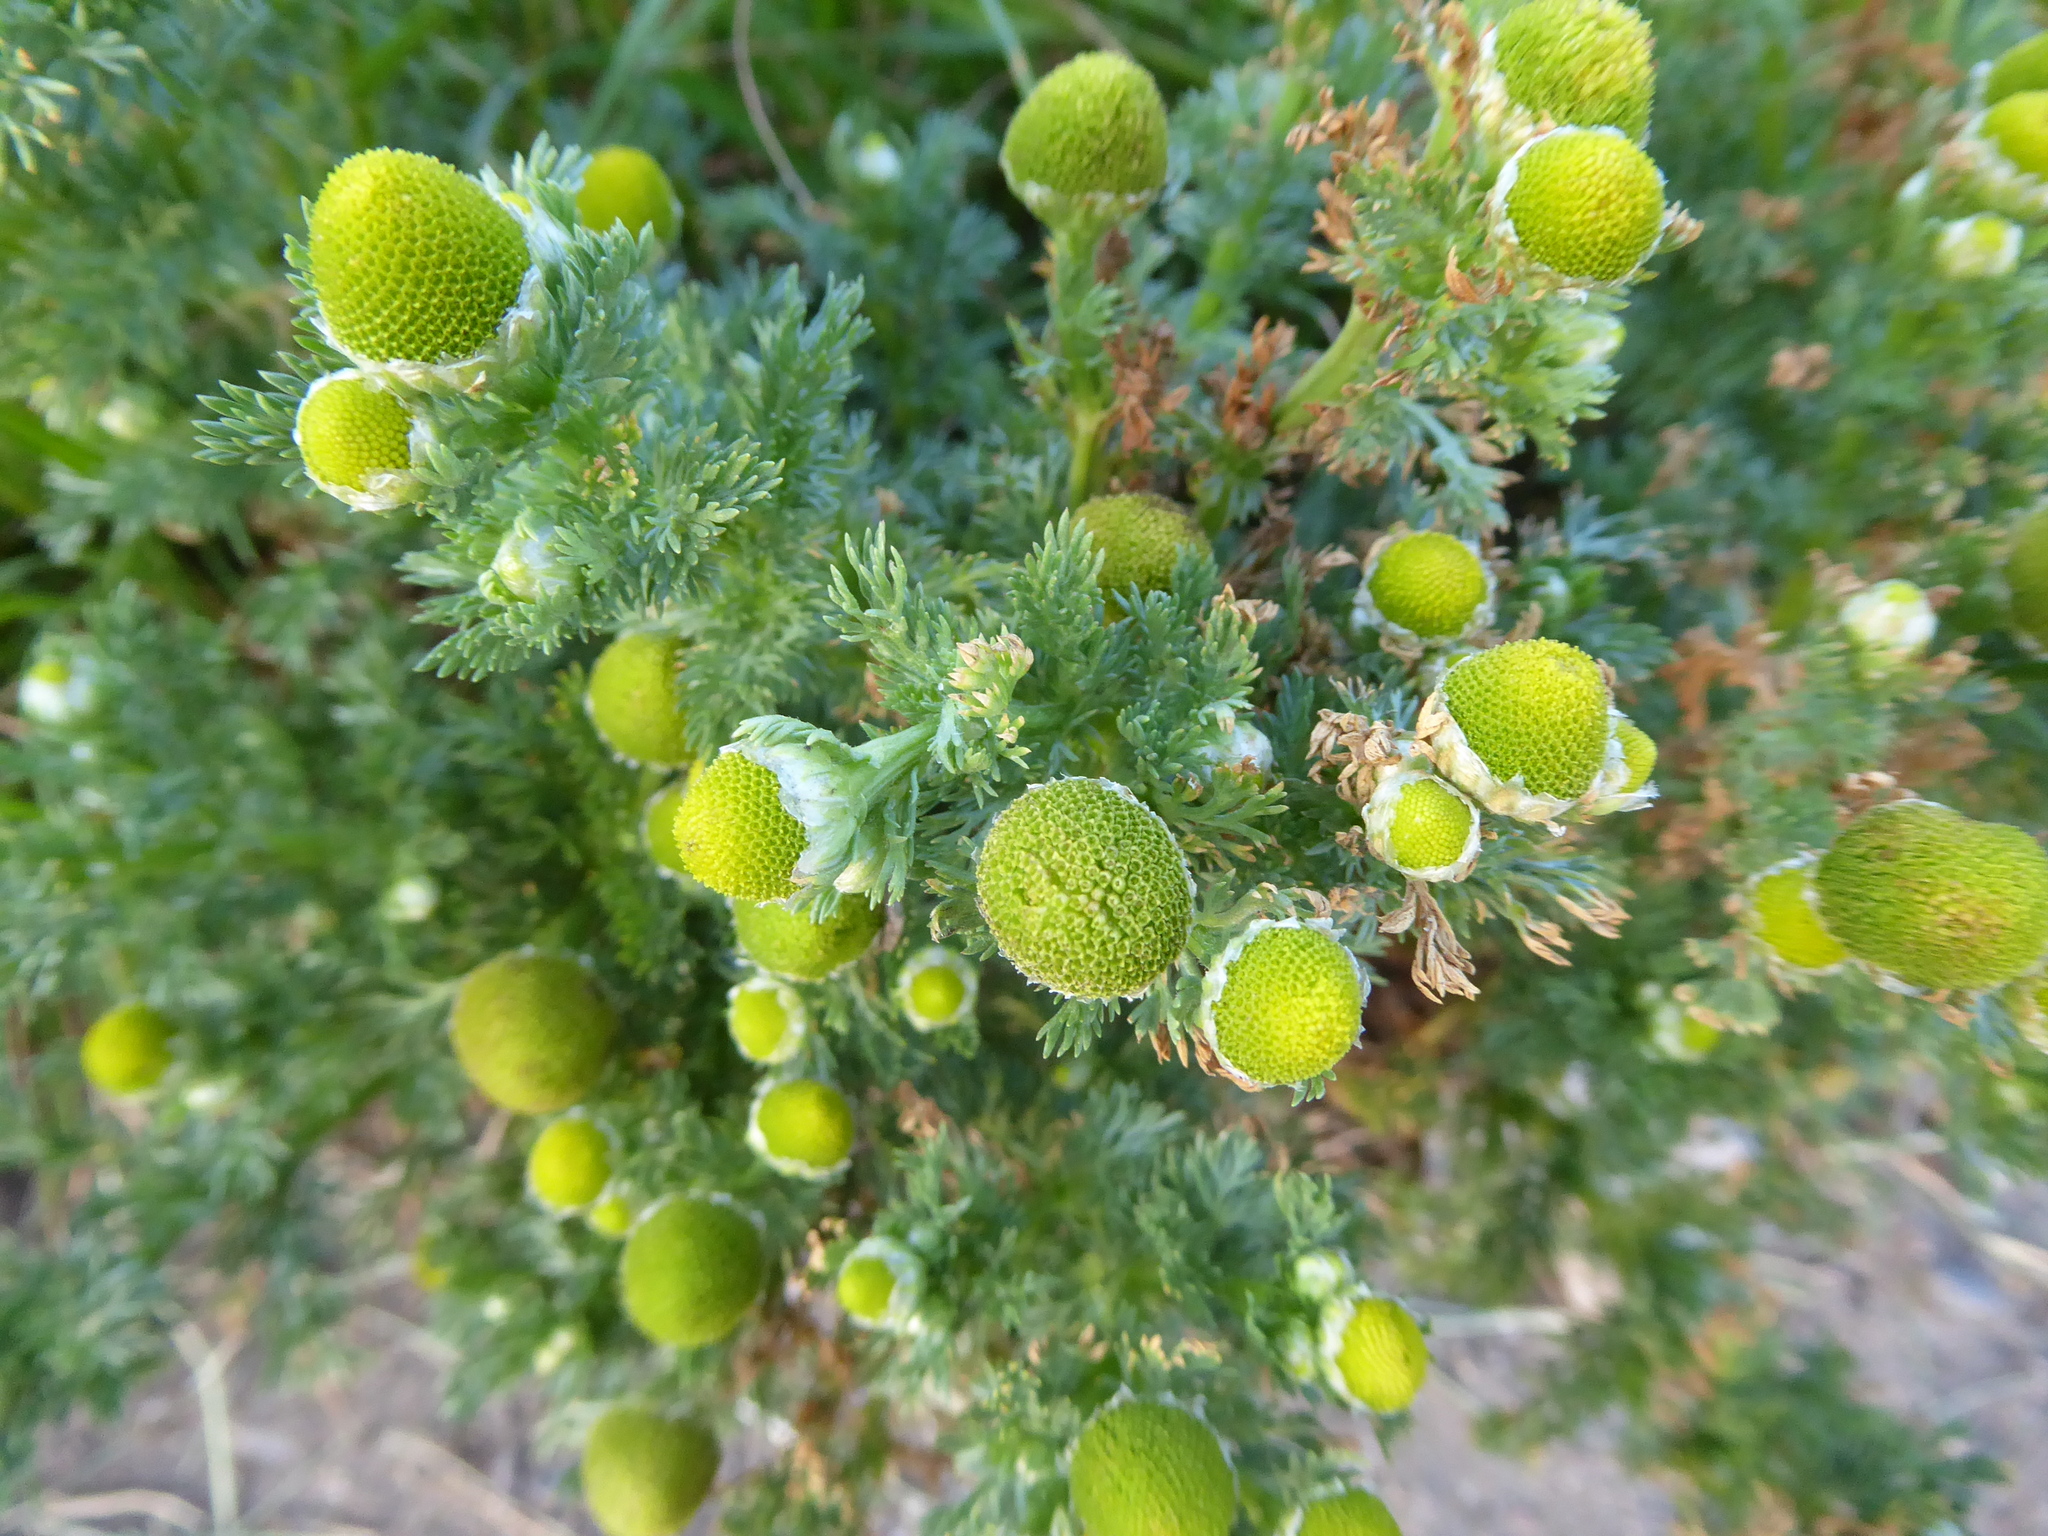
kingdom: Plantae
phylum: Tracheophyta
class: Magnoliopsida
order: Asterales
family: Asteraceae
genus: Matricaria
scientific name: Matricaria discoidea
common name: Disc mayweed
